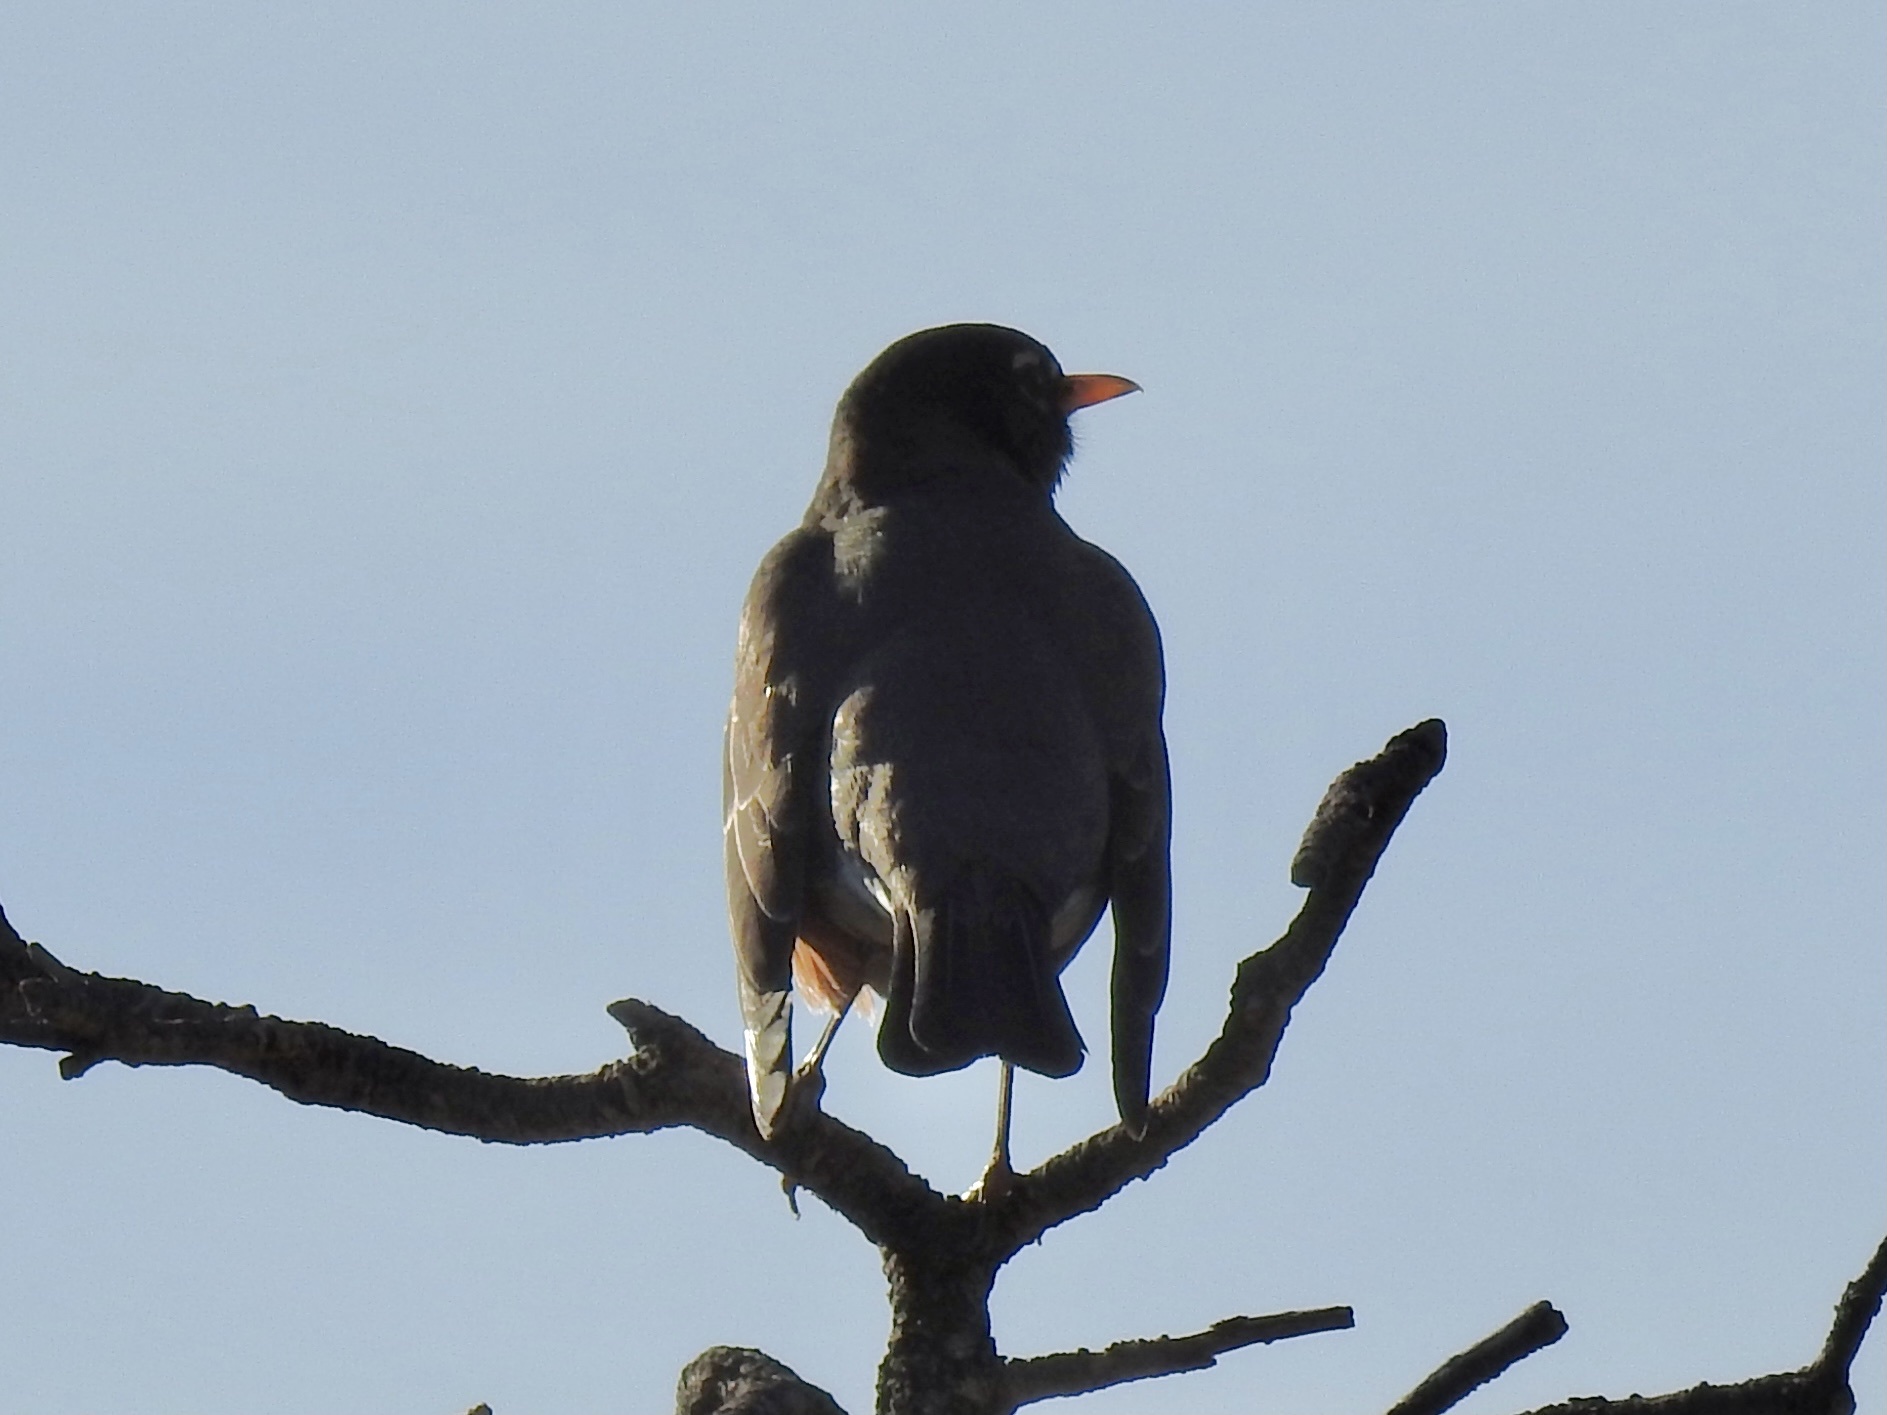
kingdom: Animalia
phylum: Chordata
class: Aves
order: Passeriformes
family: Turdidae
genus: Turdus
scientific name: Turdus migratorius
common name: American robin
